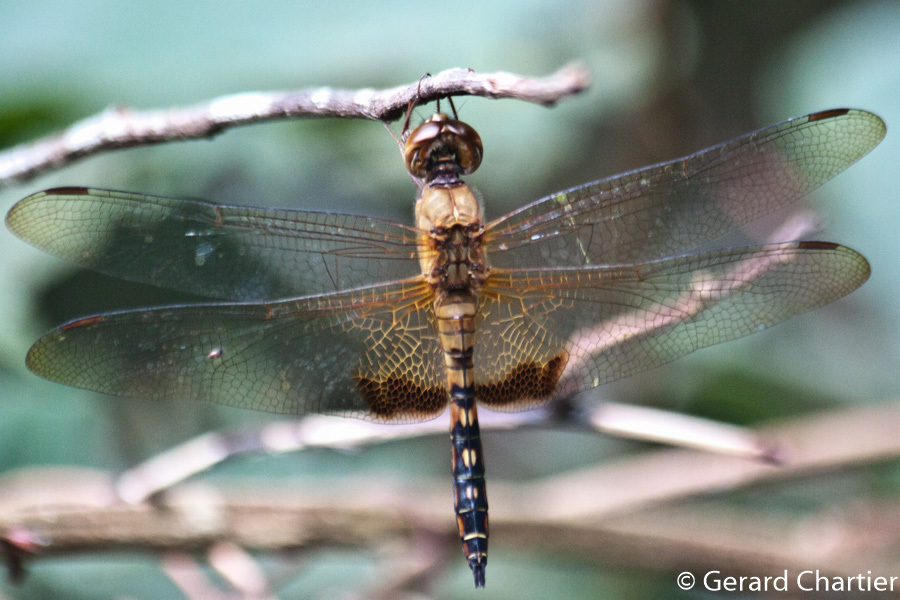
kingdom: Animalia
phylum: Arthropoda
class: Insecta
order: Odonata
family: Libellulidae
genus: Hydrobasileus
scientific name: Hydrobasileus croceus
